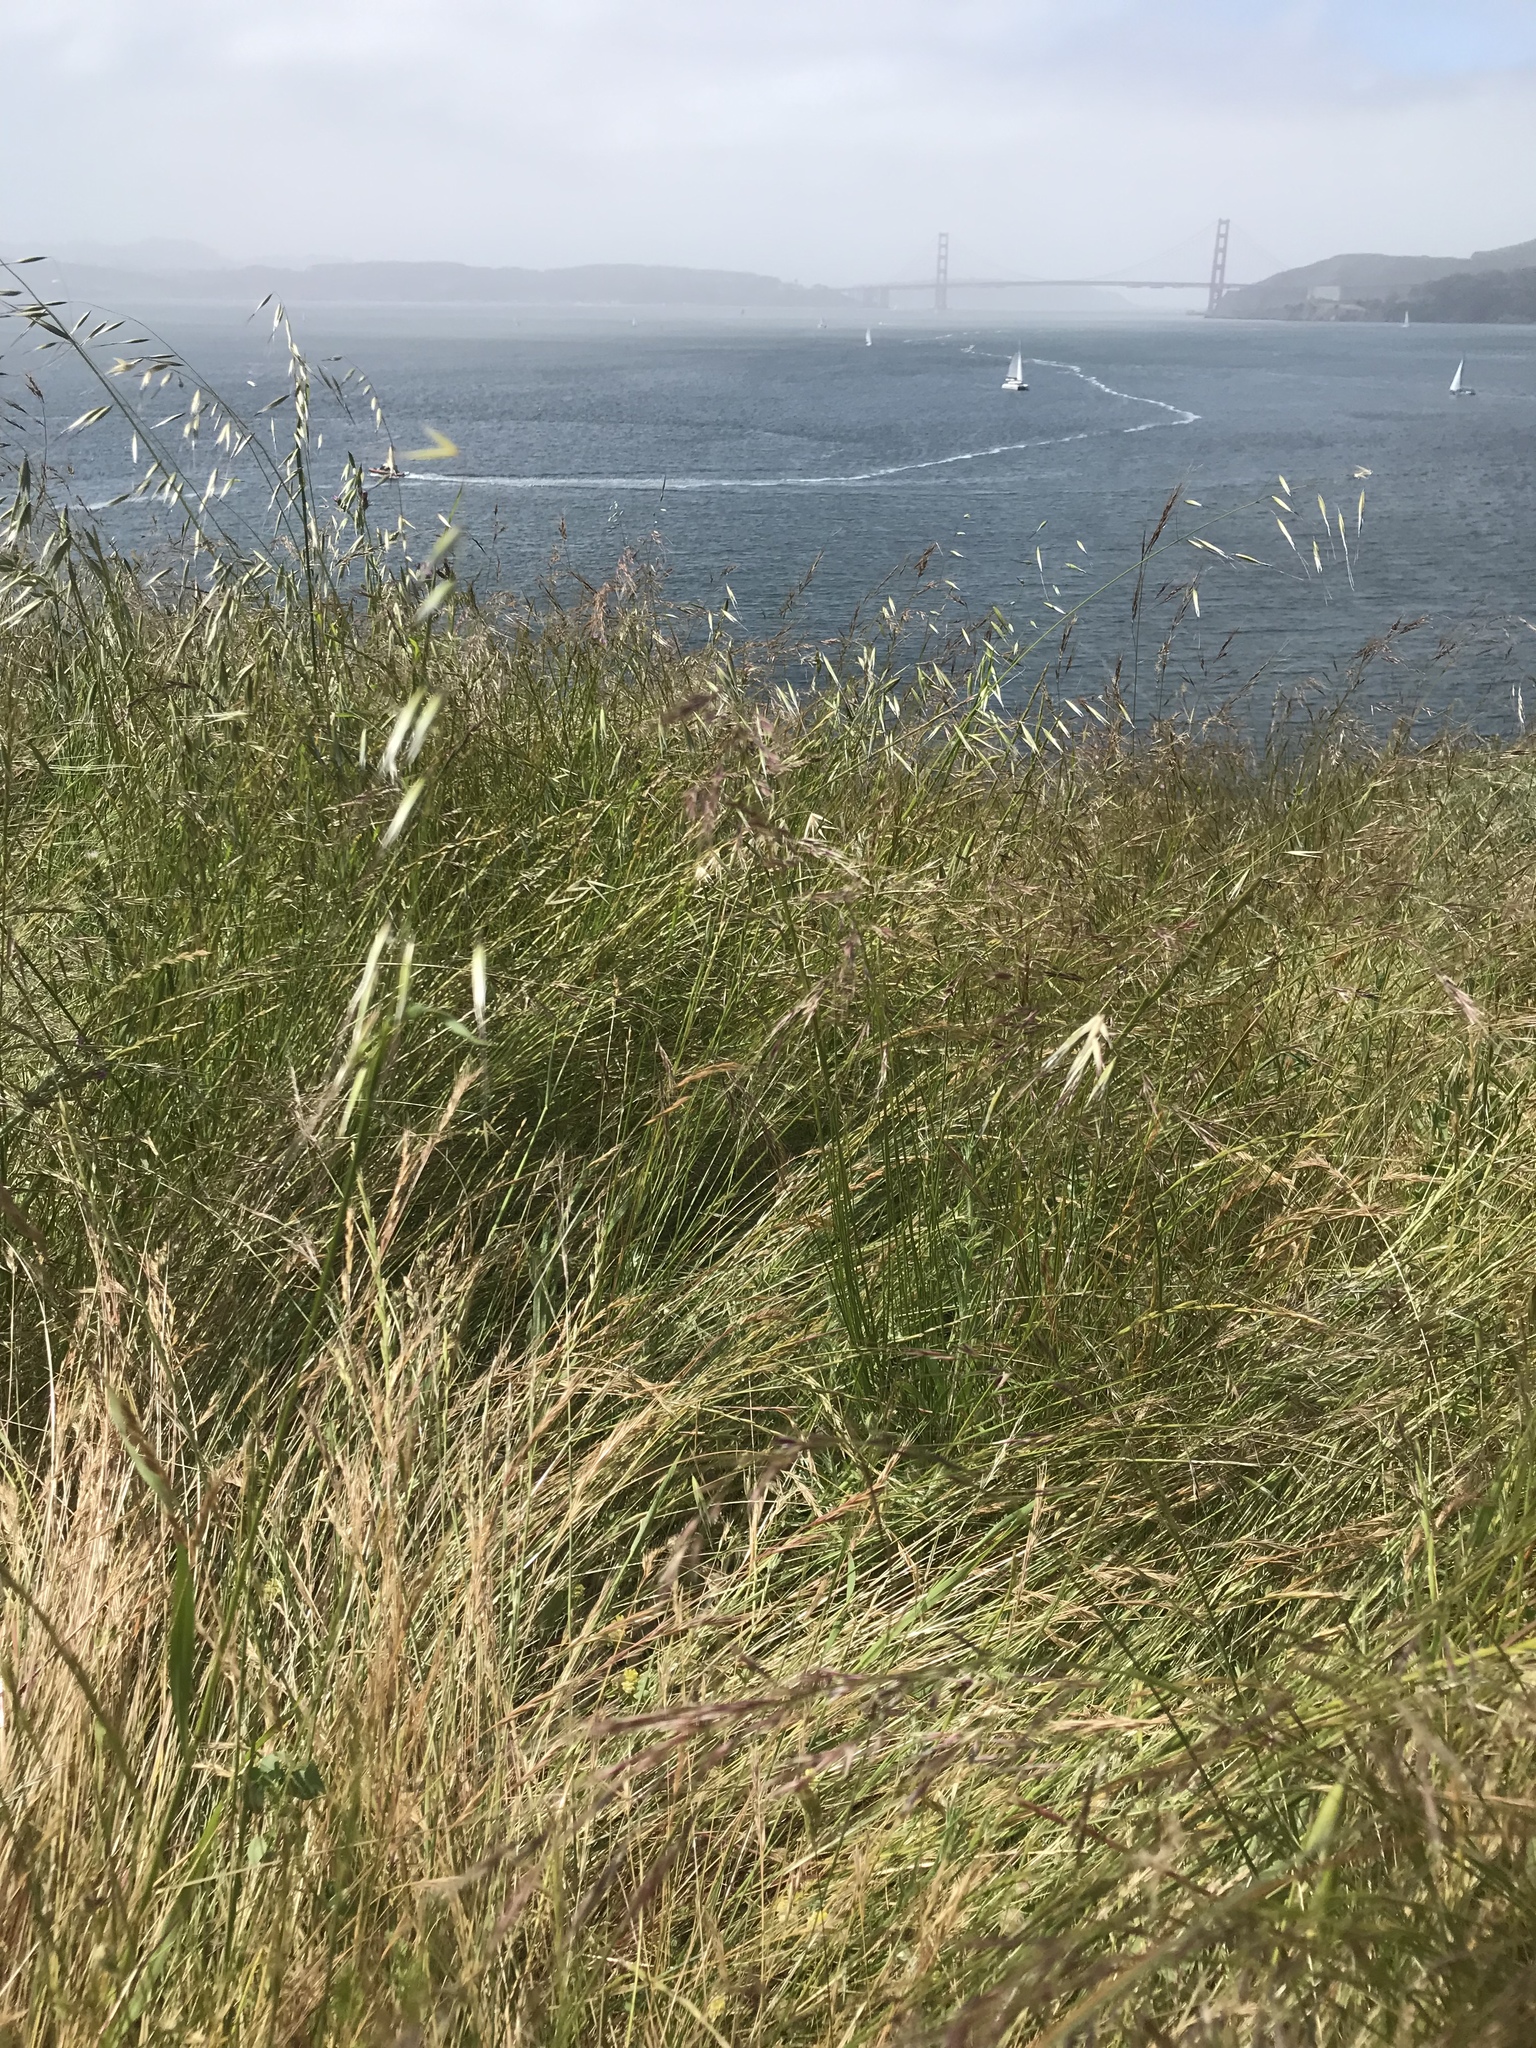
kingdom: Plantae
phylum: Tracheophyta
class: Liliopsida
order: Poales
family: Poaceae
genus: Nassella
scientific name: Nassella pulchra
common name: Purple needlegrass
